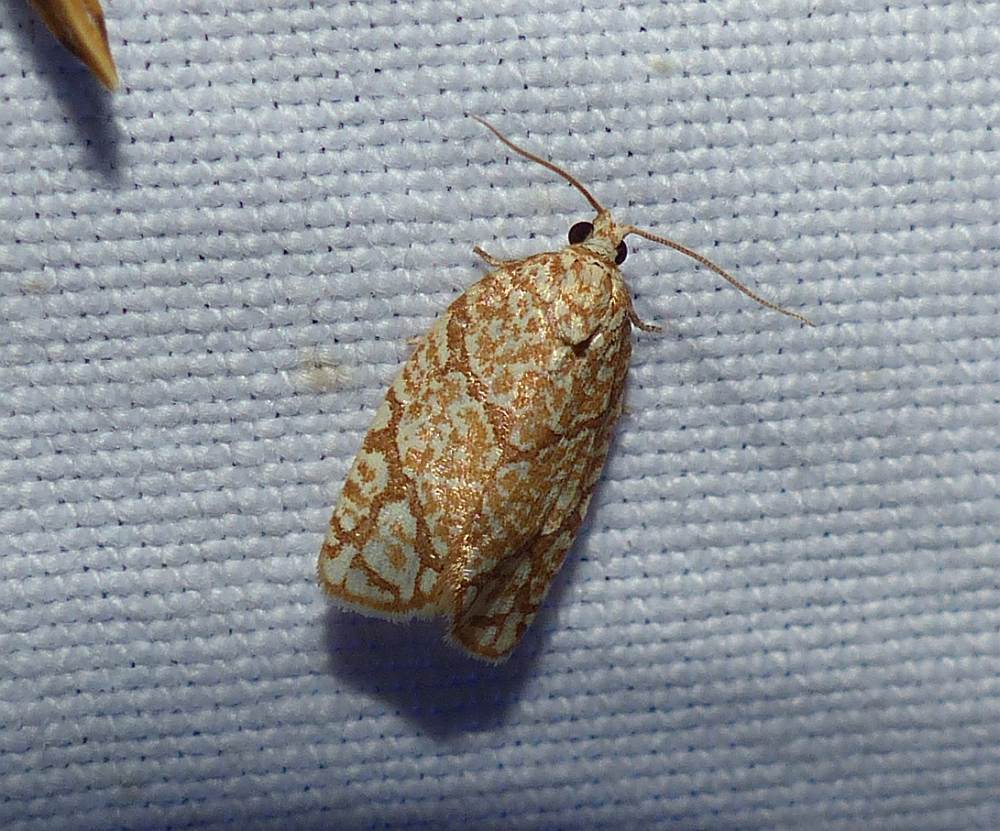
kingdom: Animalia
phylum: Arthropoda
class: Insecta
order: Lepidoptera
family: Tortricidae
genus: Argyrotaenia
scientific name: Argyrotaenia quercifoliana
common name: Yellow-winged oak leafroller moth
